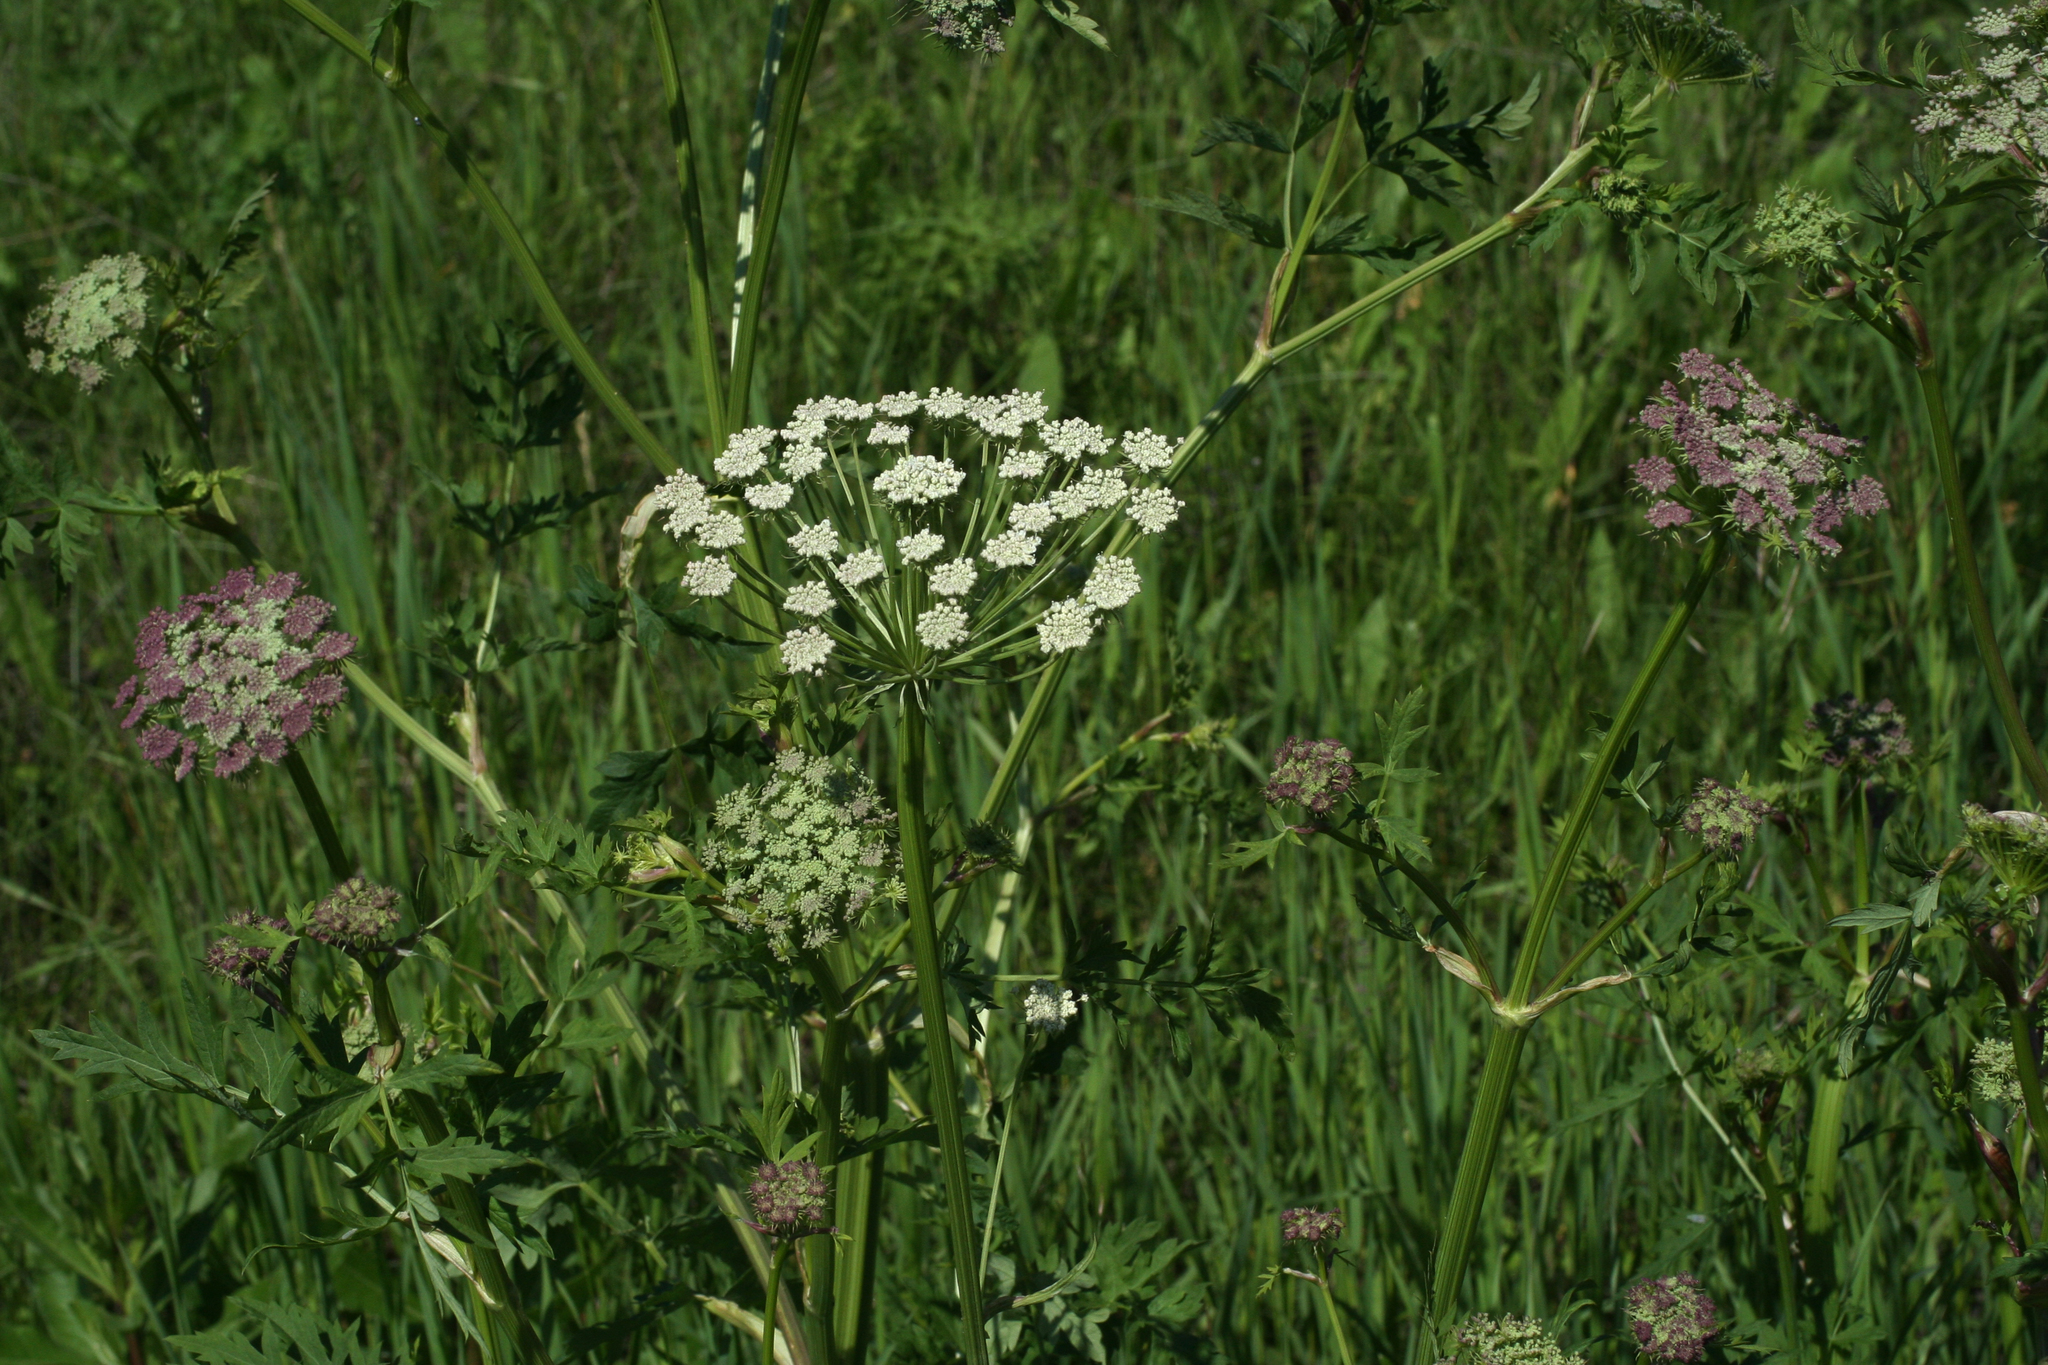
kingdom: Plantae
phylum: Tracheophyta
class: Magnoliopsida
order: Apiales
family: Apiaceae
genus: Seseli
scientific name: Seseli libanotis
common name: Mooncarrot
